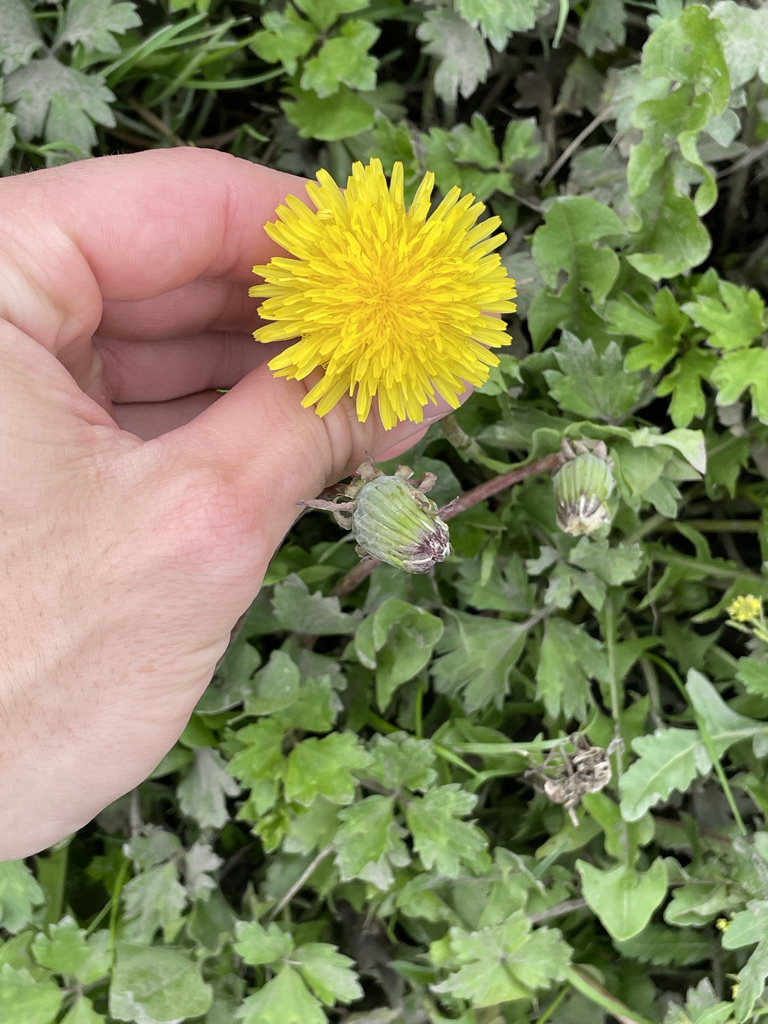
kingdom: Plantae
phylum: Tracheophyta
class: Magnoliopsida
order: Asterales
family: Asteraceae
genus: Taraxacum
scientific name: Taraxacum officinale
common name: Common dandelion
